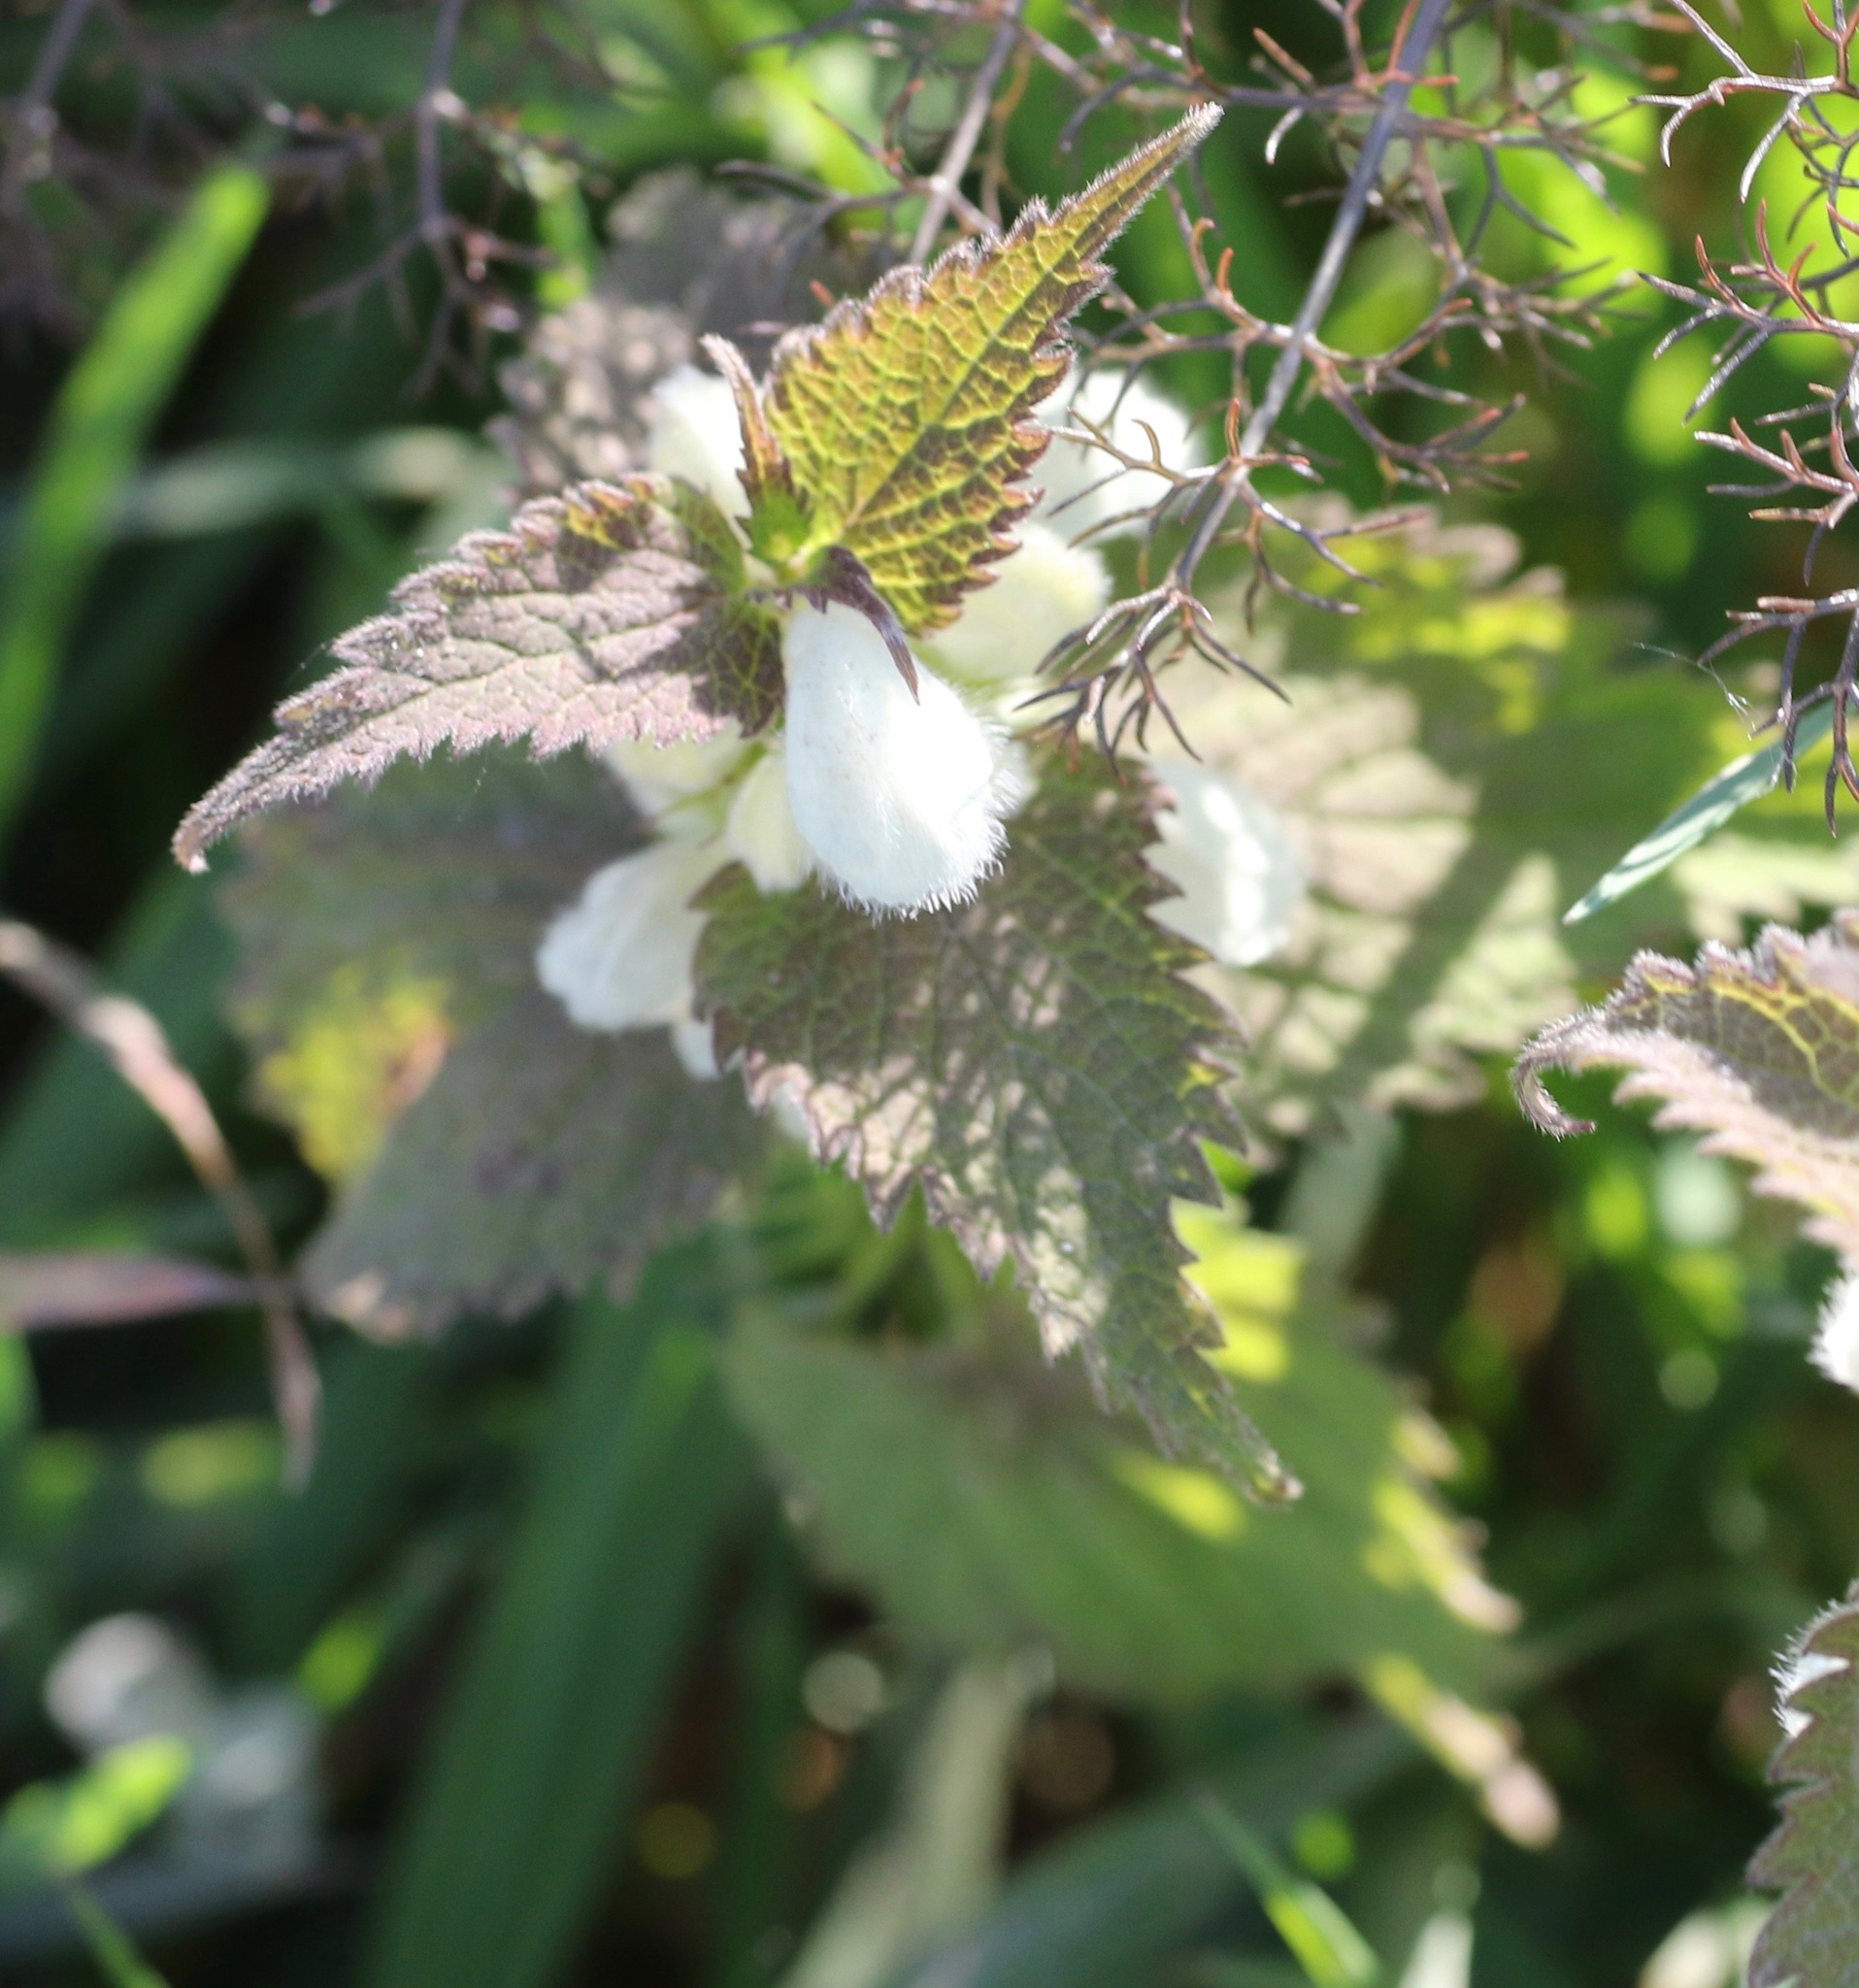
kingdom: Plantae
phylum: Tracheophyta
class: Magnoliopsida
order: Lamiales
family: Lamiaceae
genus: Lamium
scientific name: Lamium album
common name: White dead-nettle
